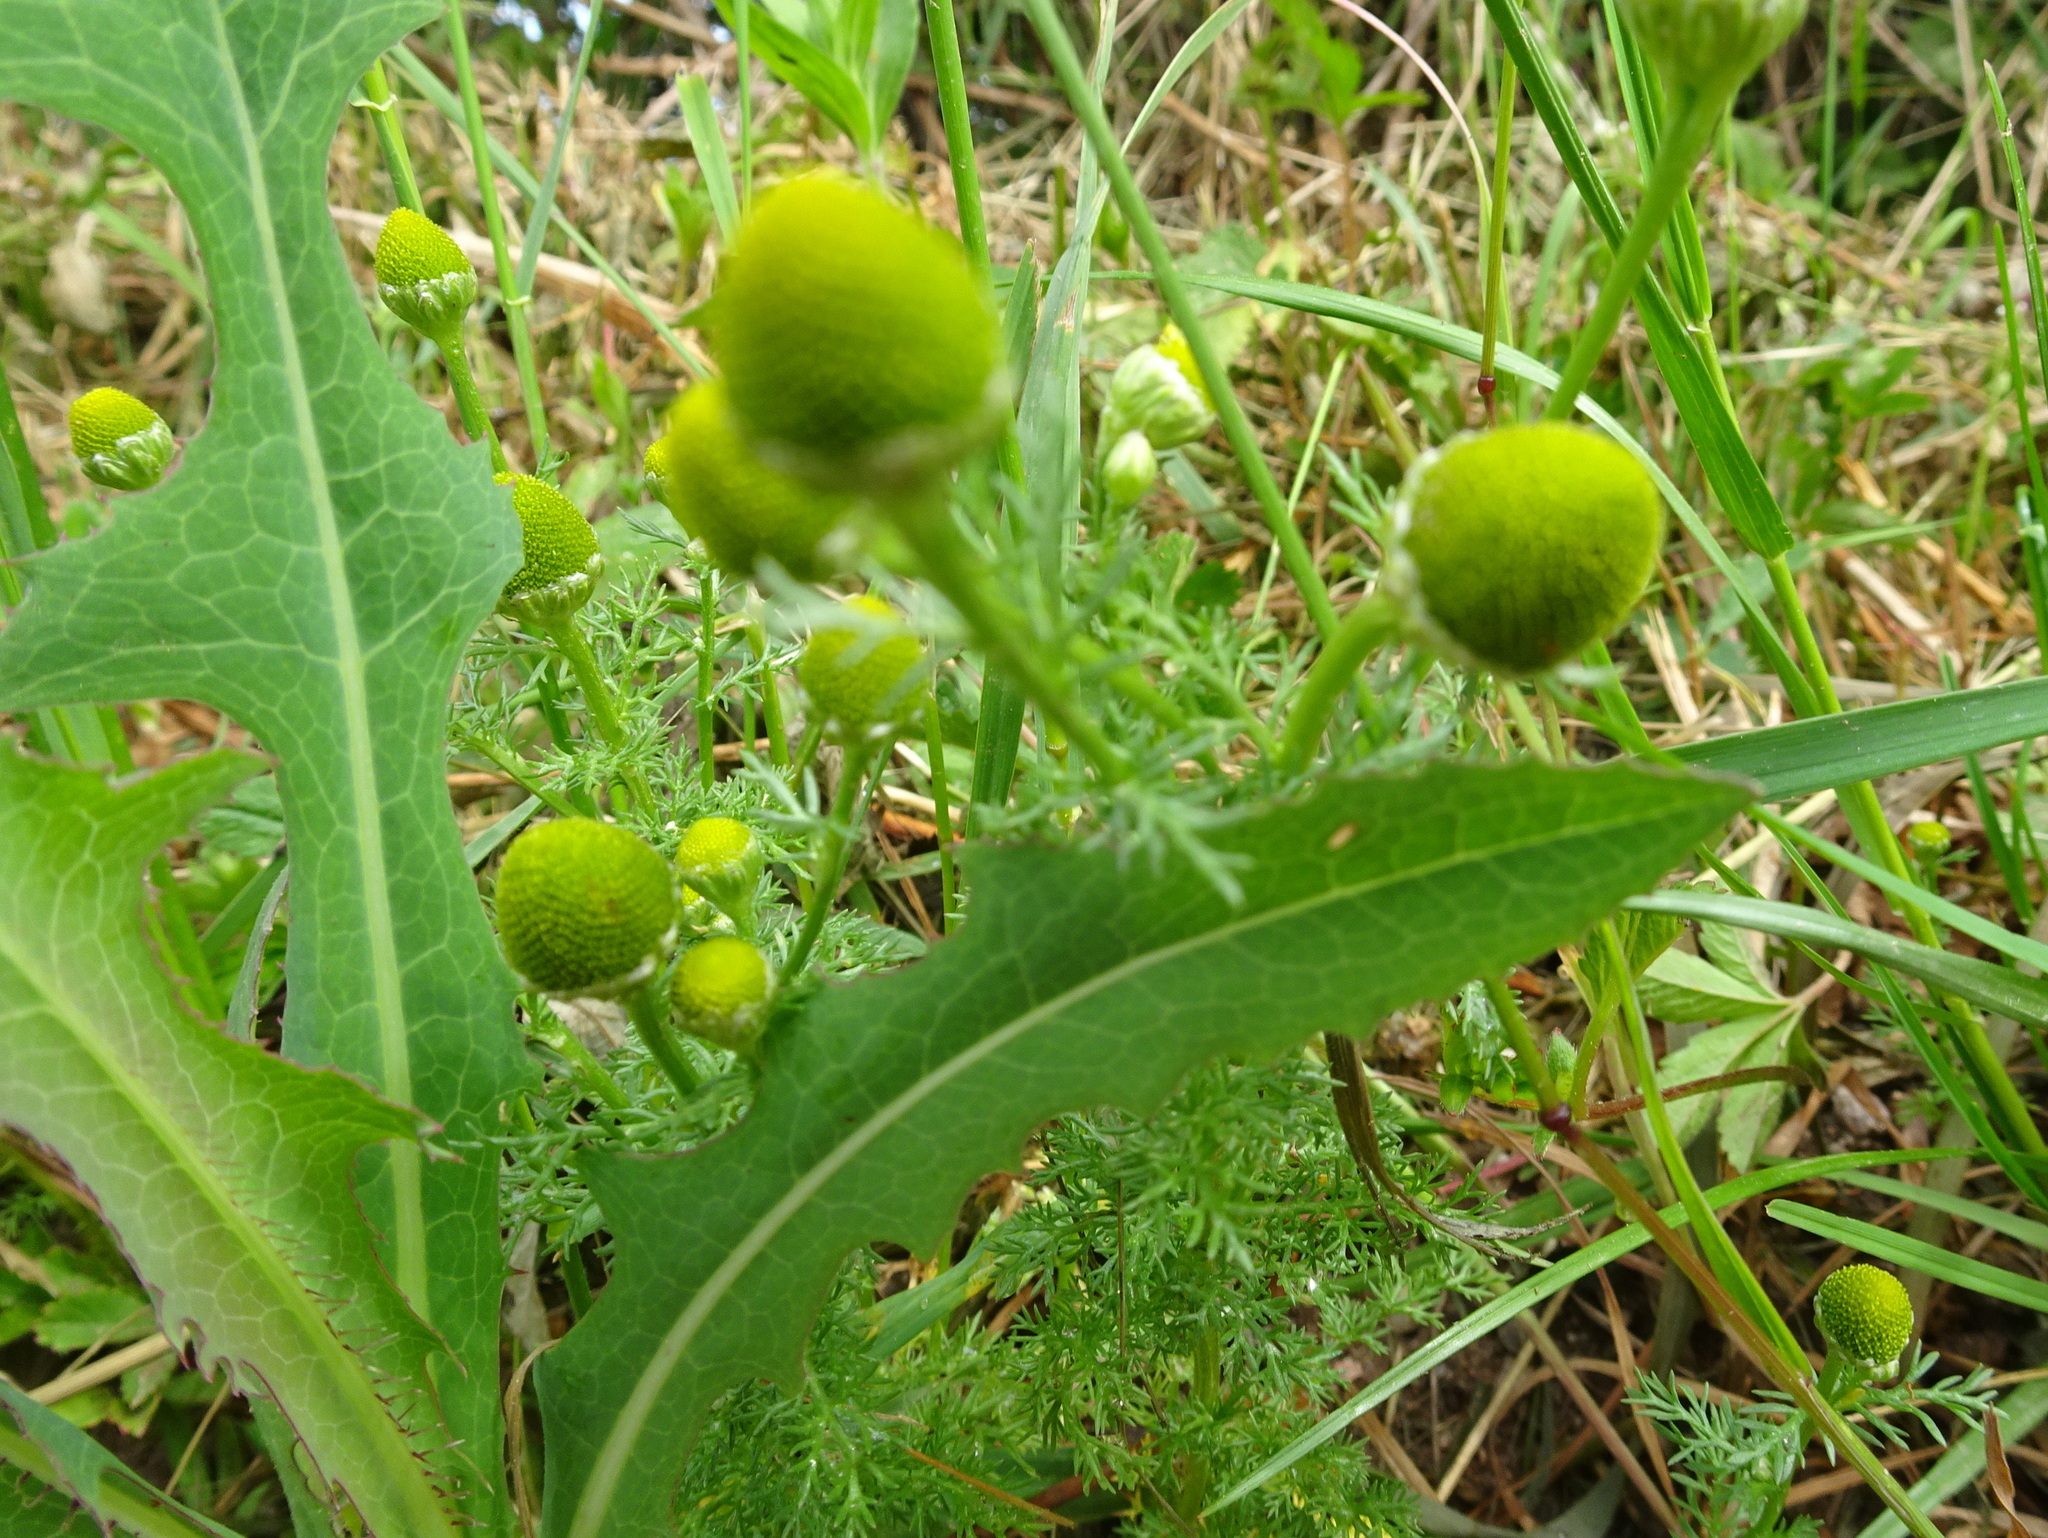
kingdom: Plantae
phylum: Tracheophyta
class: Magnoliopsida
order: Asterales
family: Asteraceae
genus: Matricaria
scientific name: Matricaria discoidea
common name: Disc mayweed
